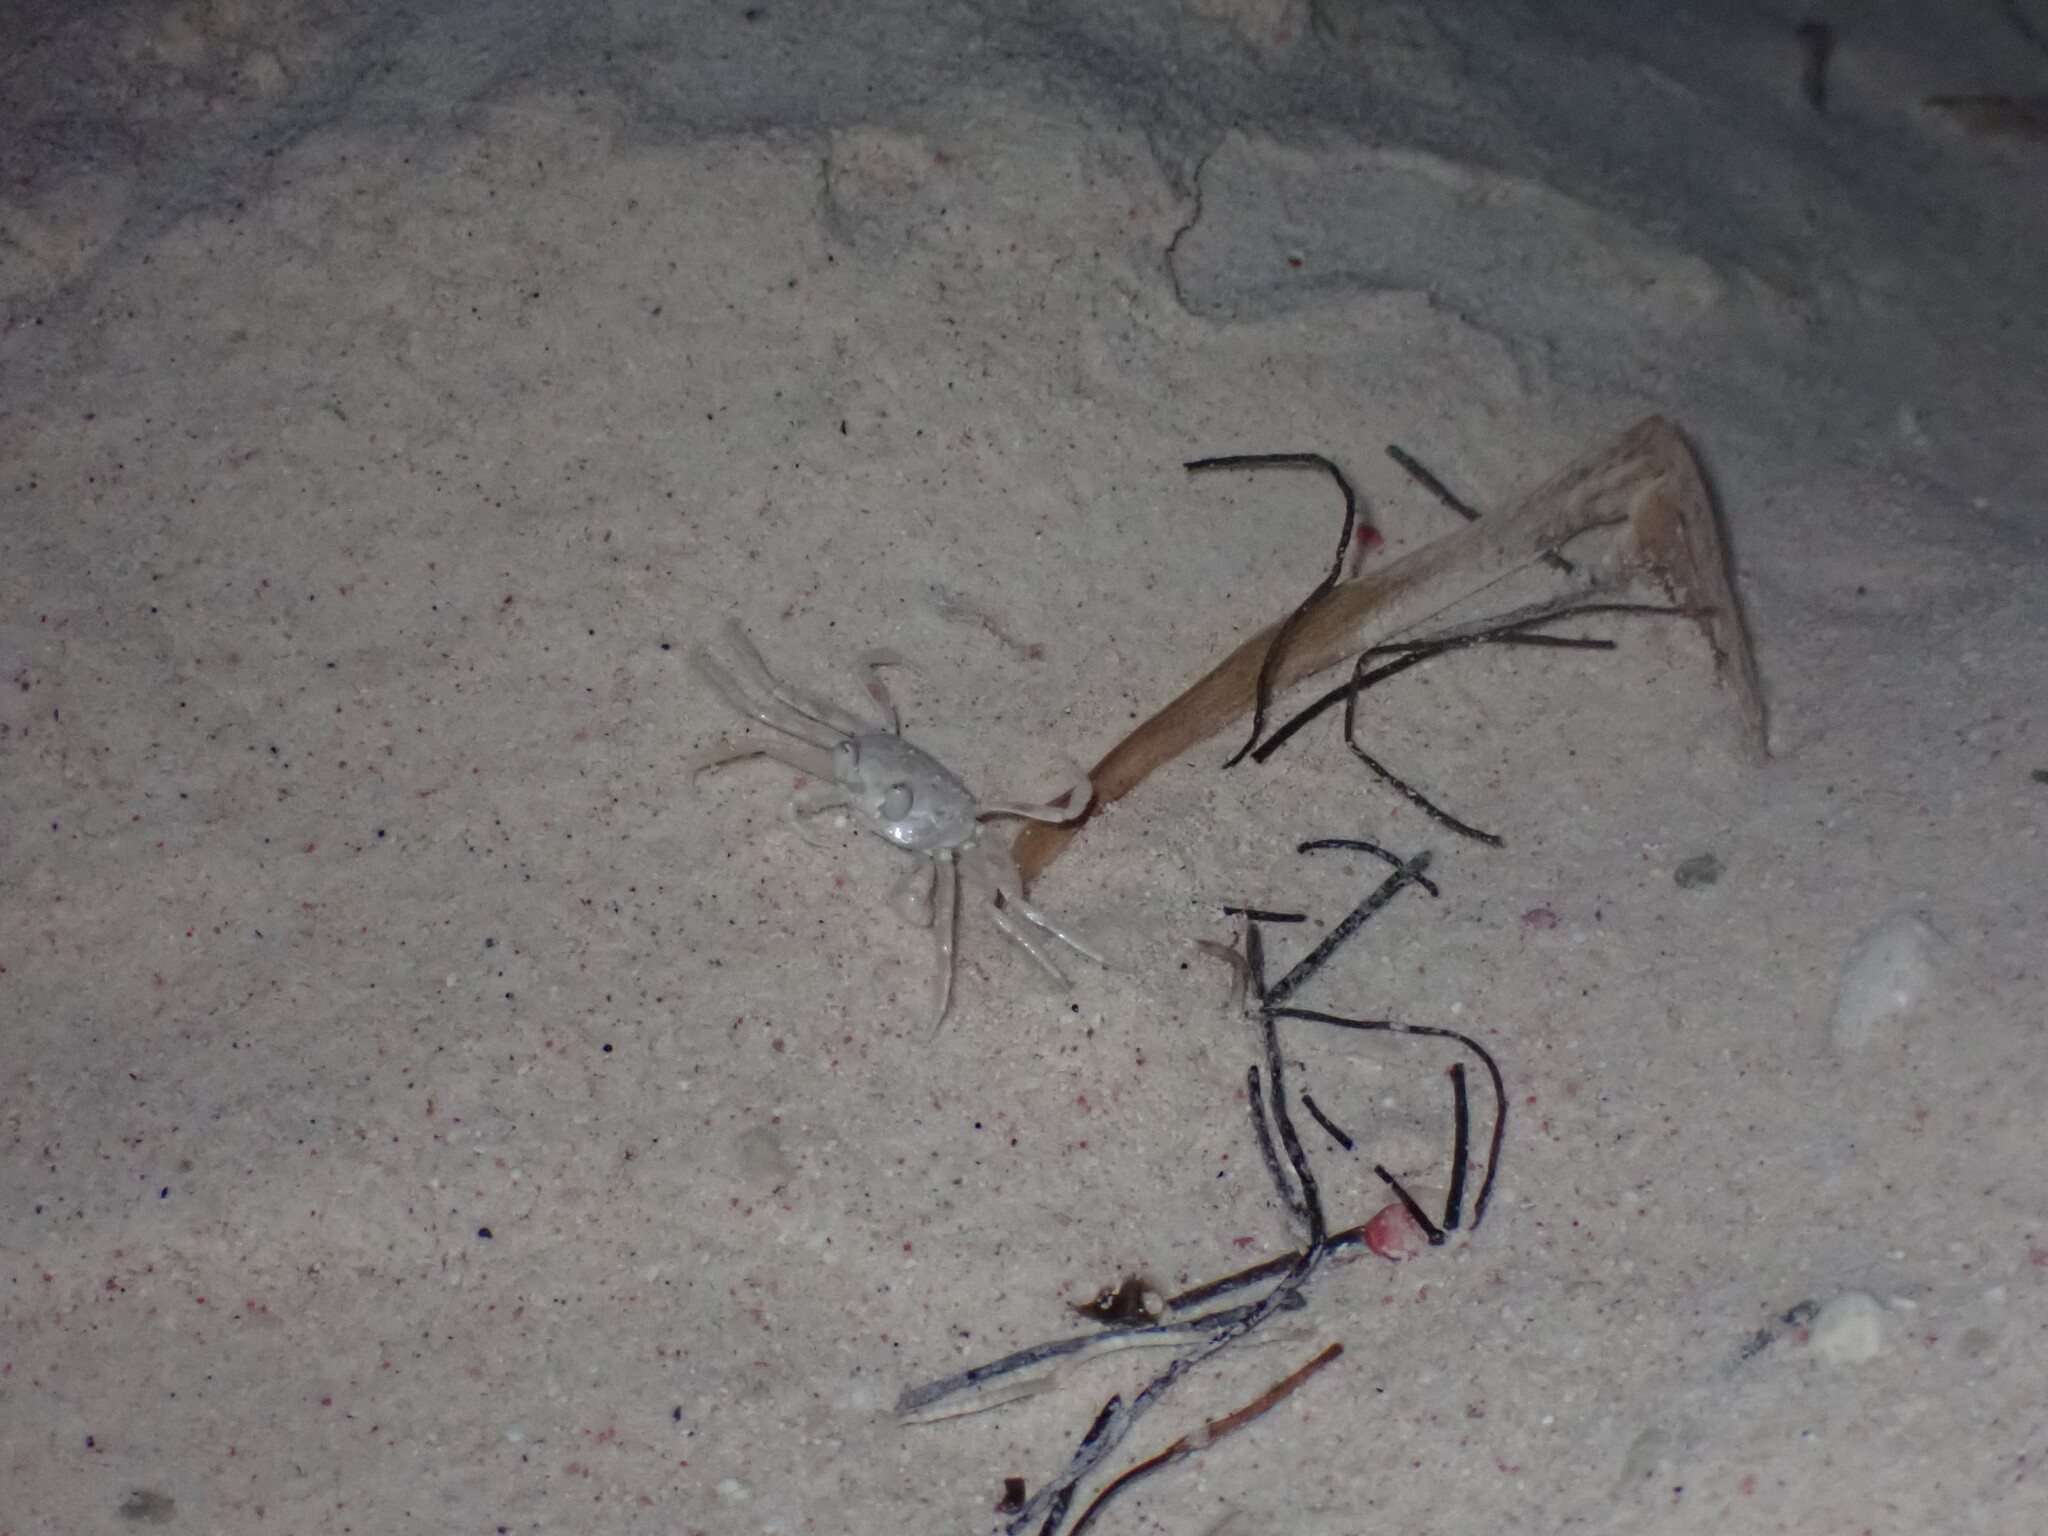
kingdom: Animalia
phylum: Arthropoda
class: Malacostraca
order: Decapoda
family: Ocypodidae
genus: Ocypode
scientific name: Ocypode quadrata
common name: Ghost crab
